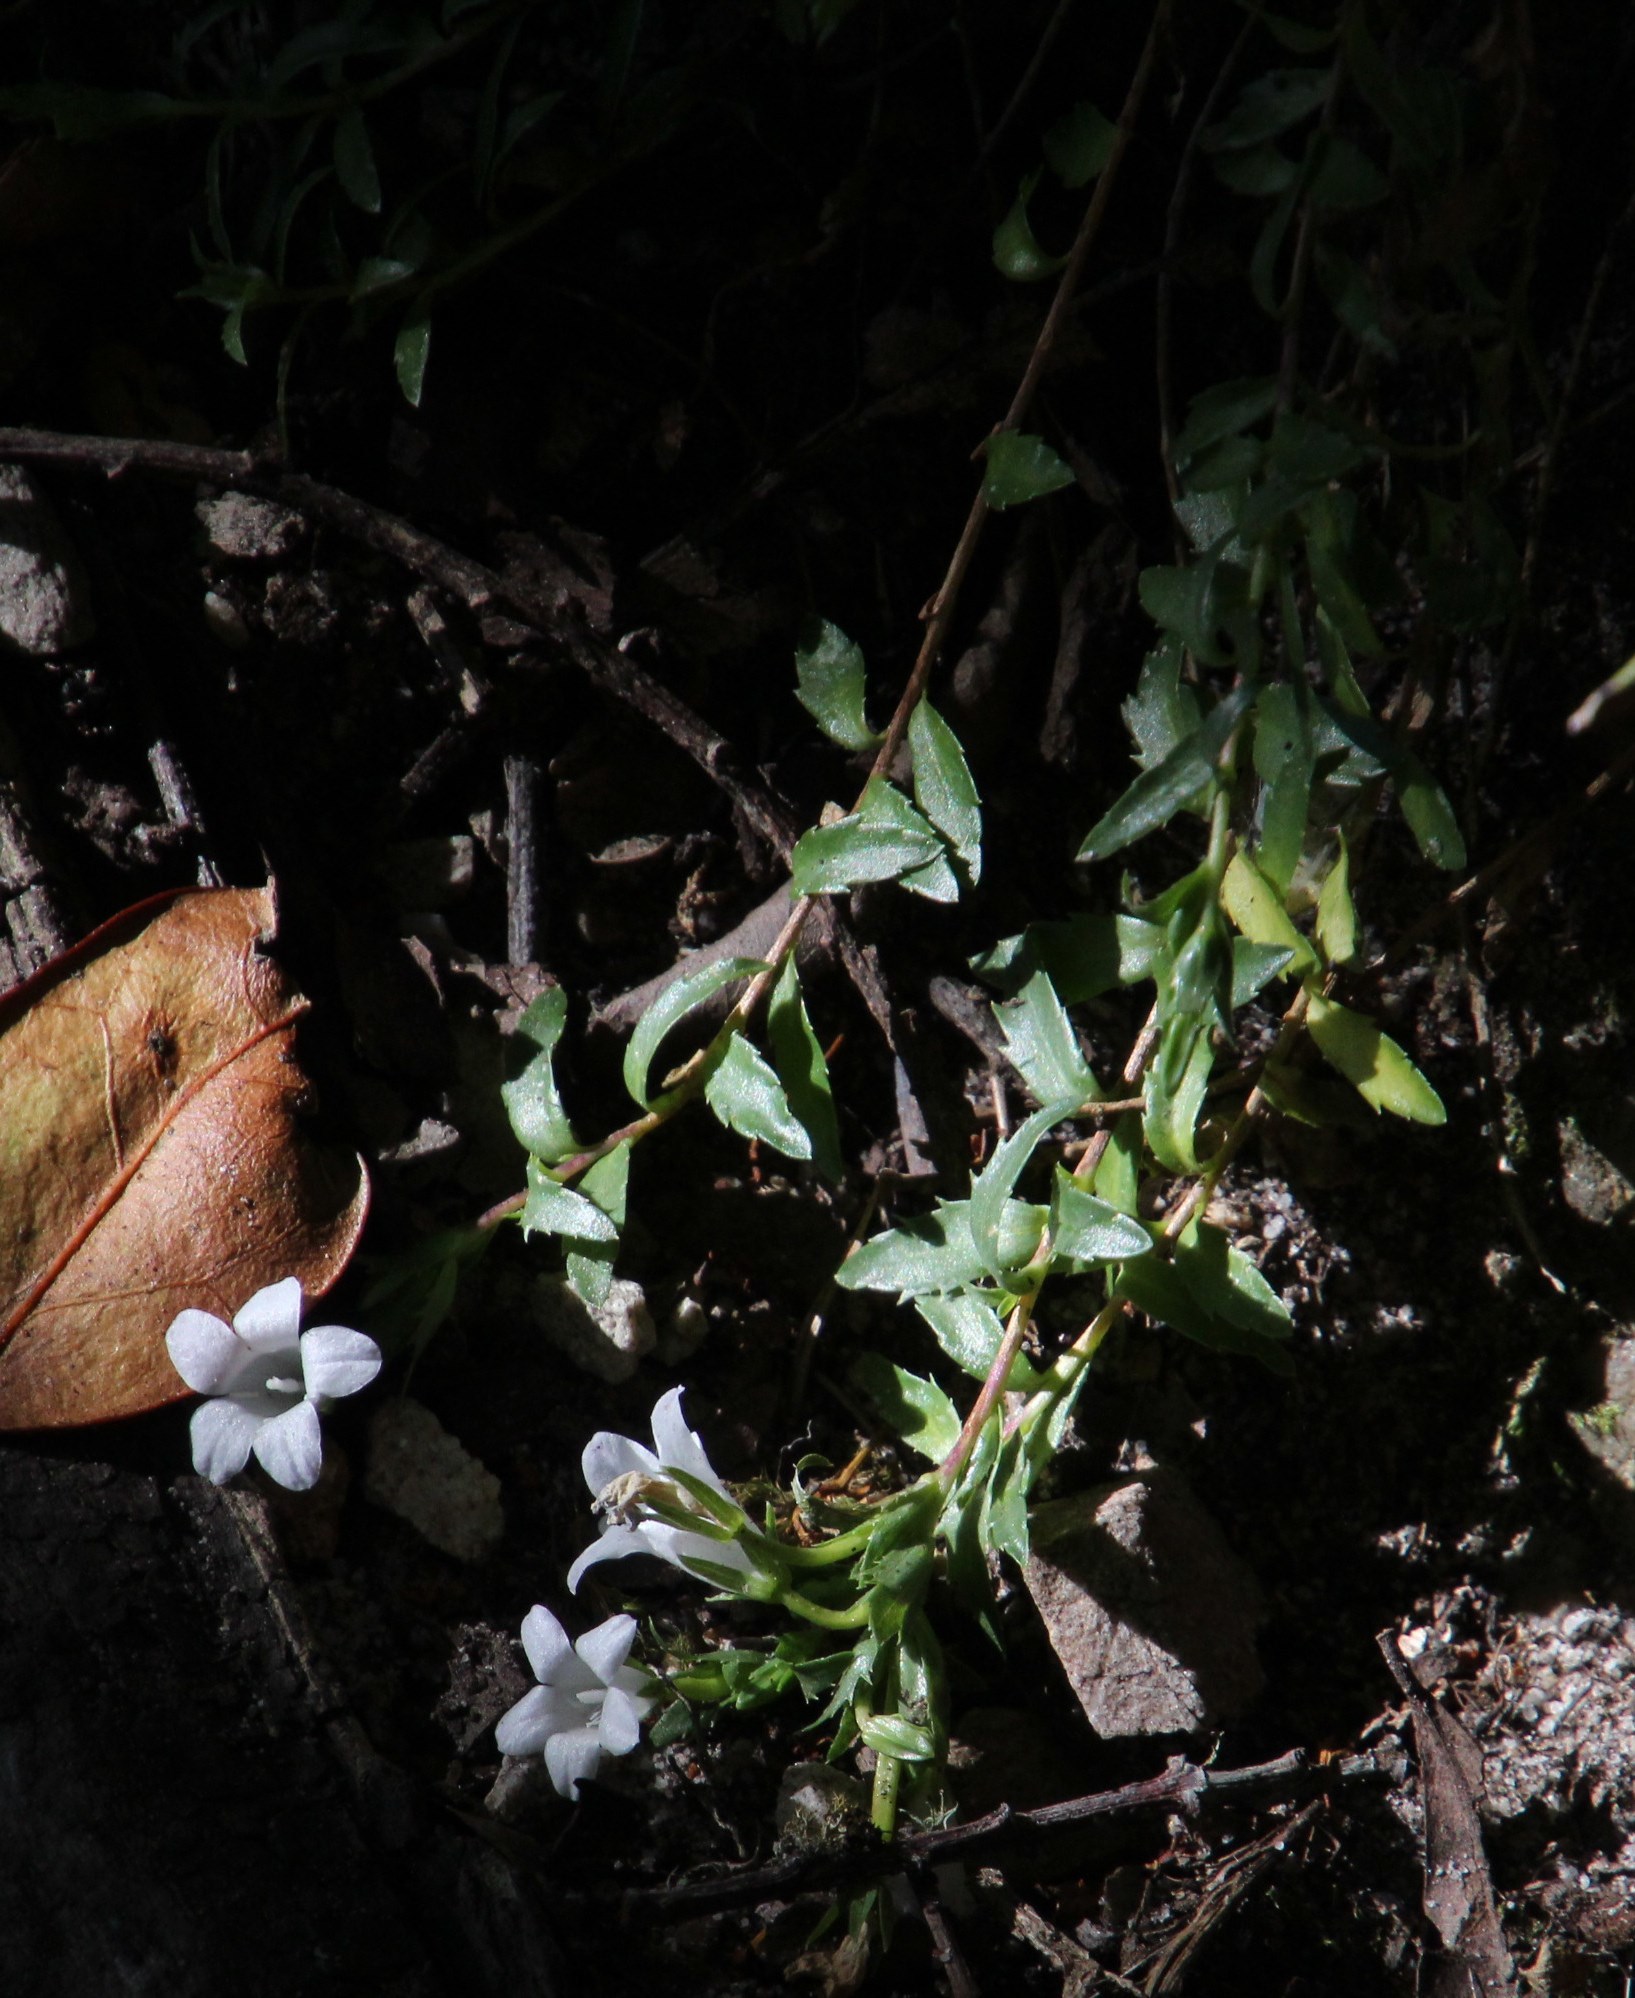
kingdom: Plantae
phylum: Tracheophyta
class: Magnoliopsida
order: Asterales
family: Campanulaceae
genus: Prismatocarpus
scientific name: Prismatocarpus nitidus
